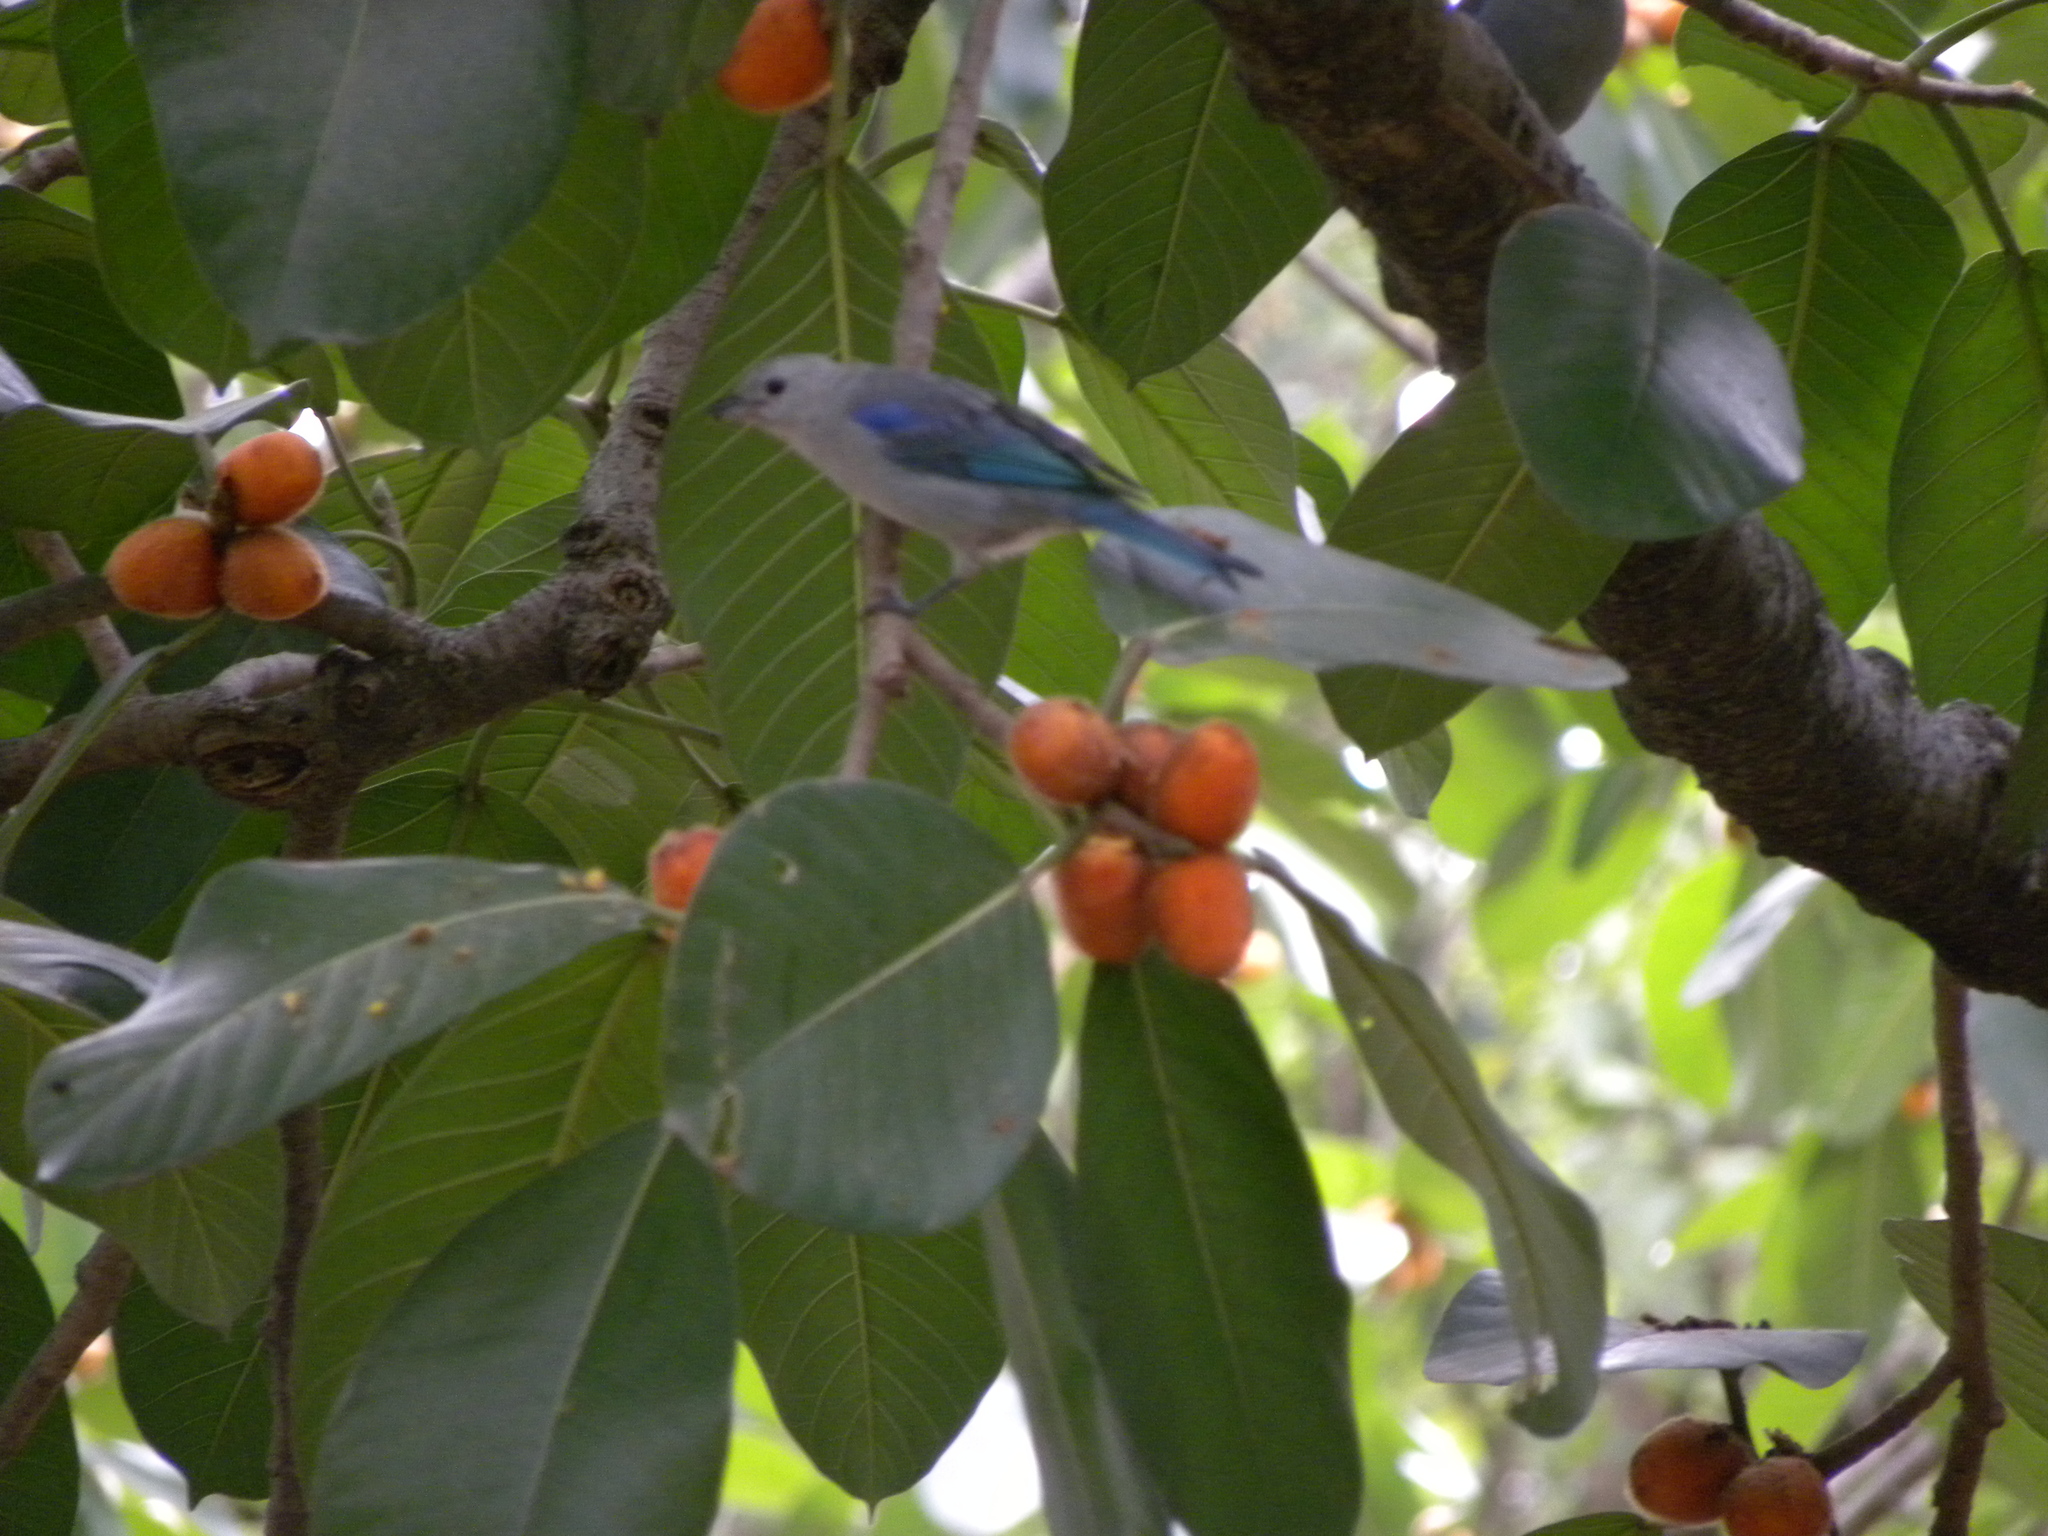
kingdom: Animalia
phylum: Chordata
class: Aves
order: Passeriformes
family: Thraupidae
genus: Thraupis
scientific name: Thraupis episcopus
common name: Blue-grey tanager
